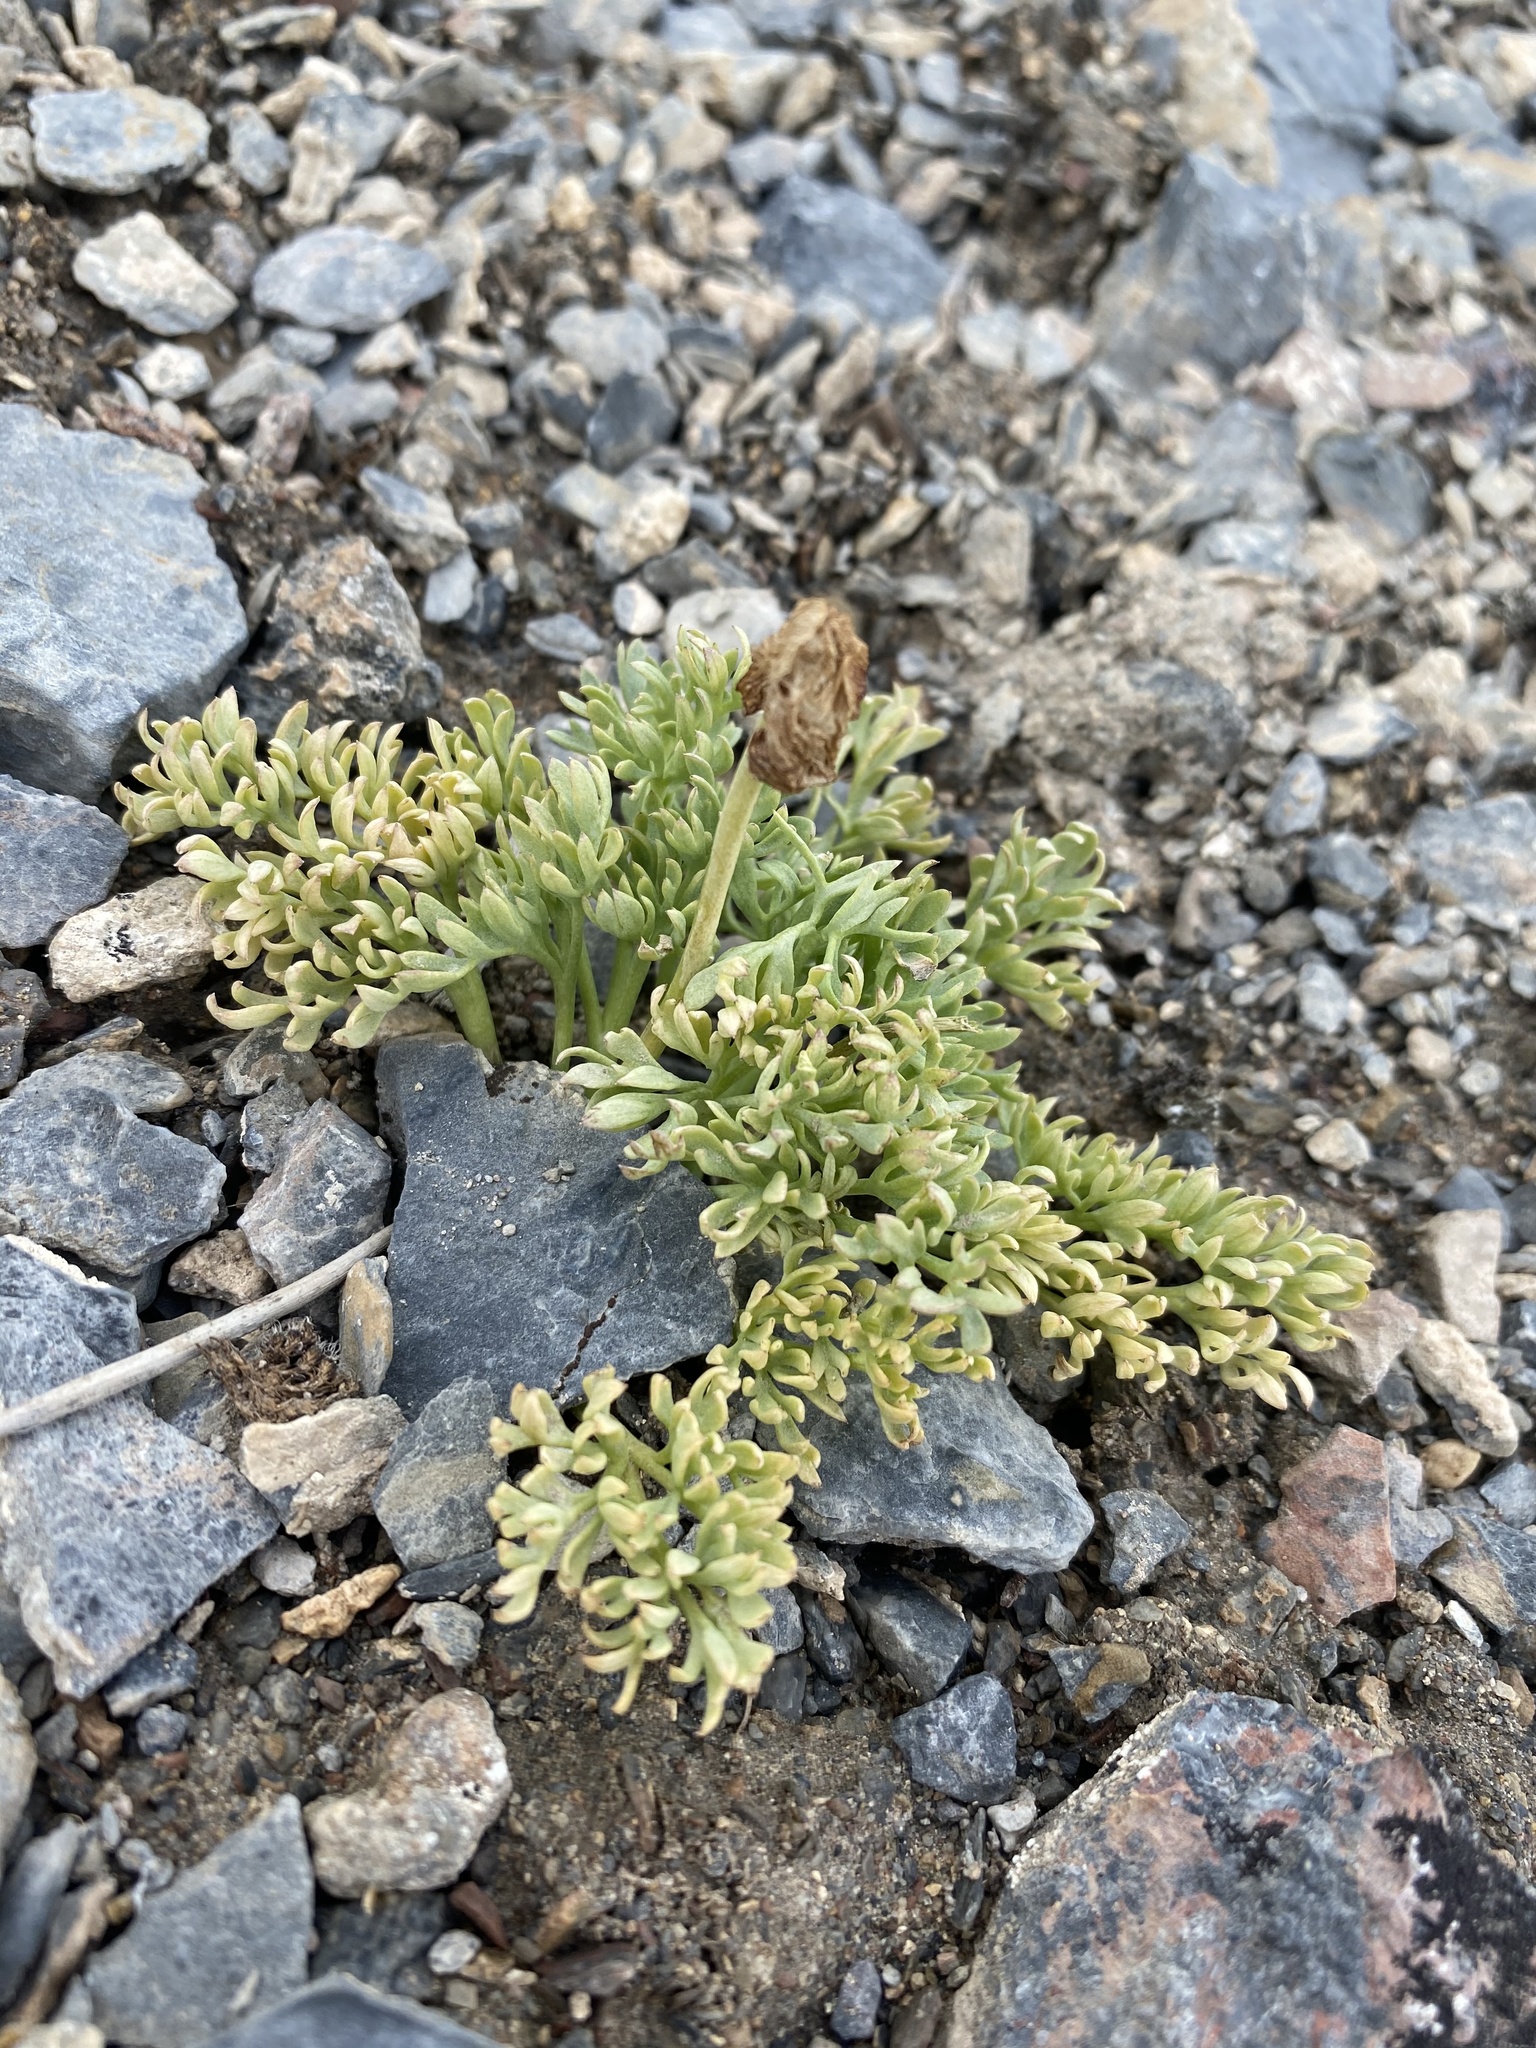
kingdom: Plantae
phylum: Tracheophyta
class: Magnoliopsida
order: Ranunculales
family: Ranunculaceae
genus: Beckwithia
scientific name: Beckwithia andersonii
